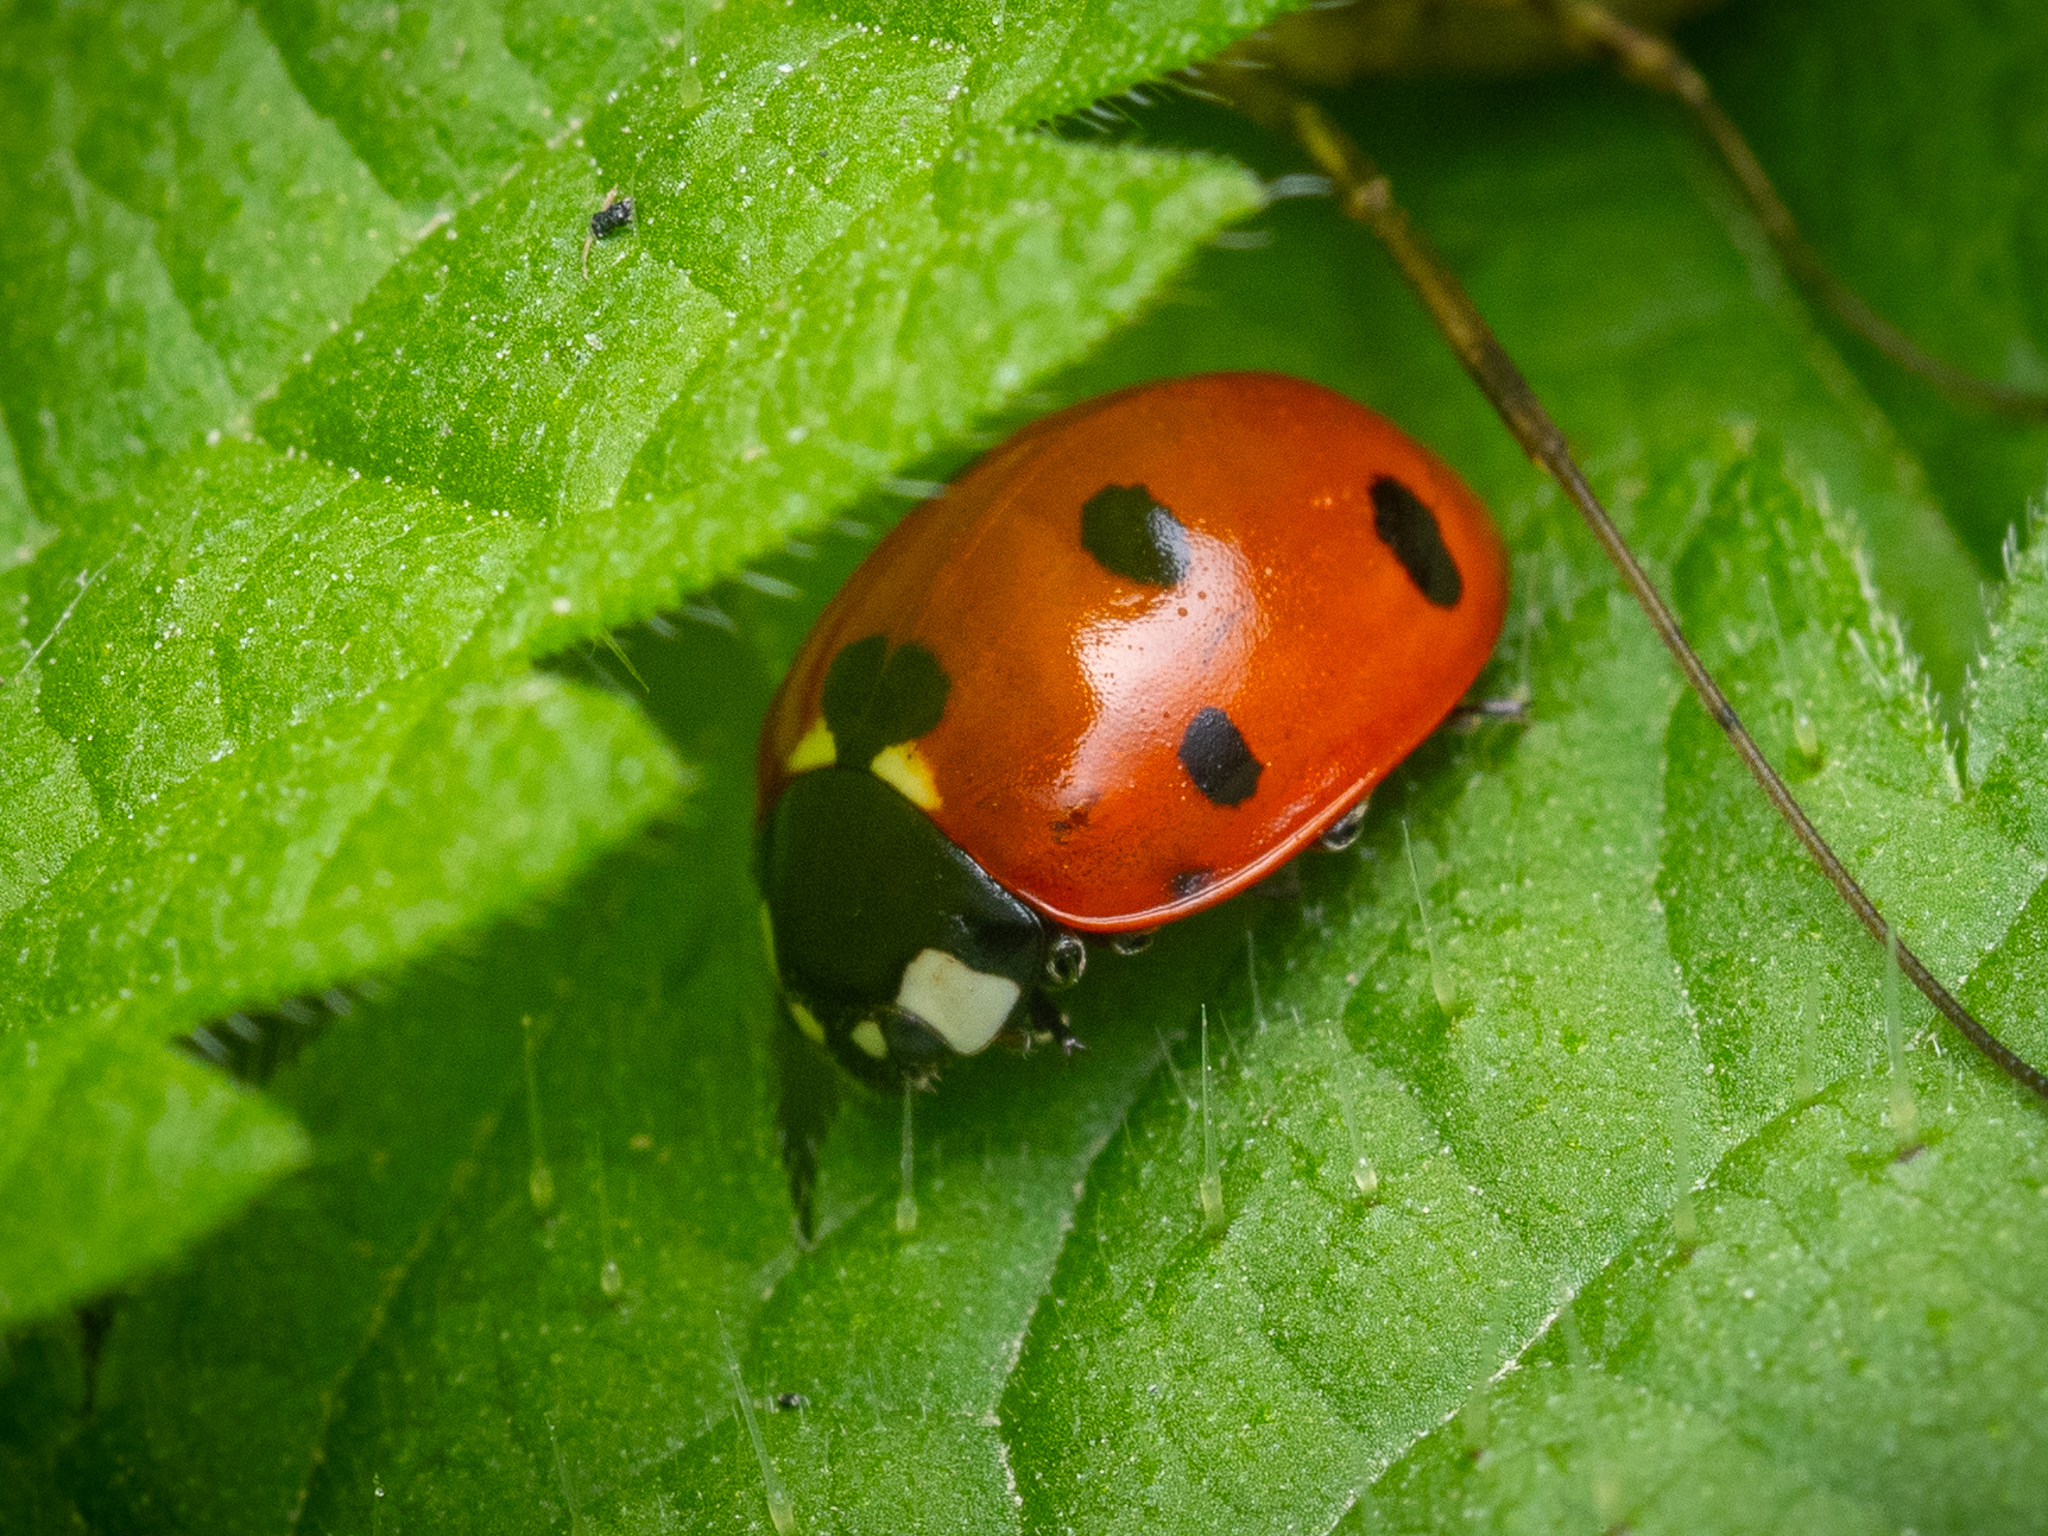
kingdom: Animalia
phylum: Arthropoda
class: Insecta
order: Coleoptera
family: Coccinellidae
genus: Coccinella
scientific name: Coccinella septempunctata
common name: Sevenspotted lady beetle
